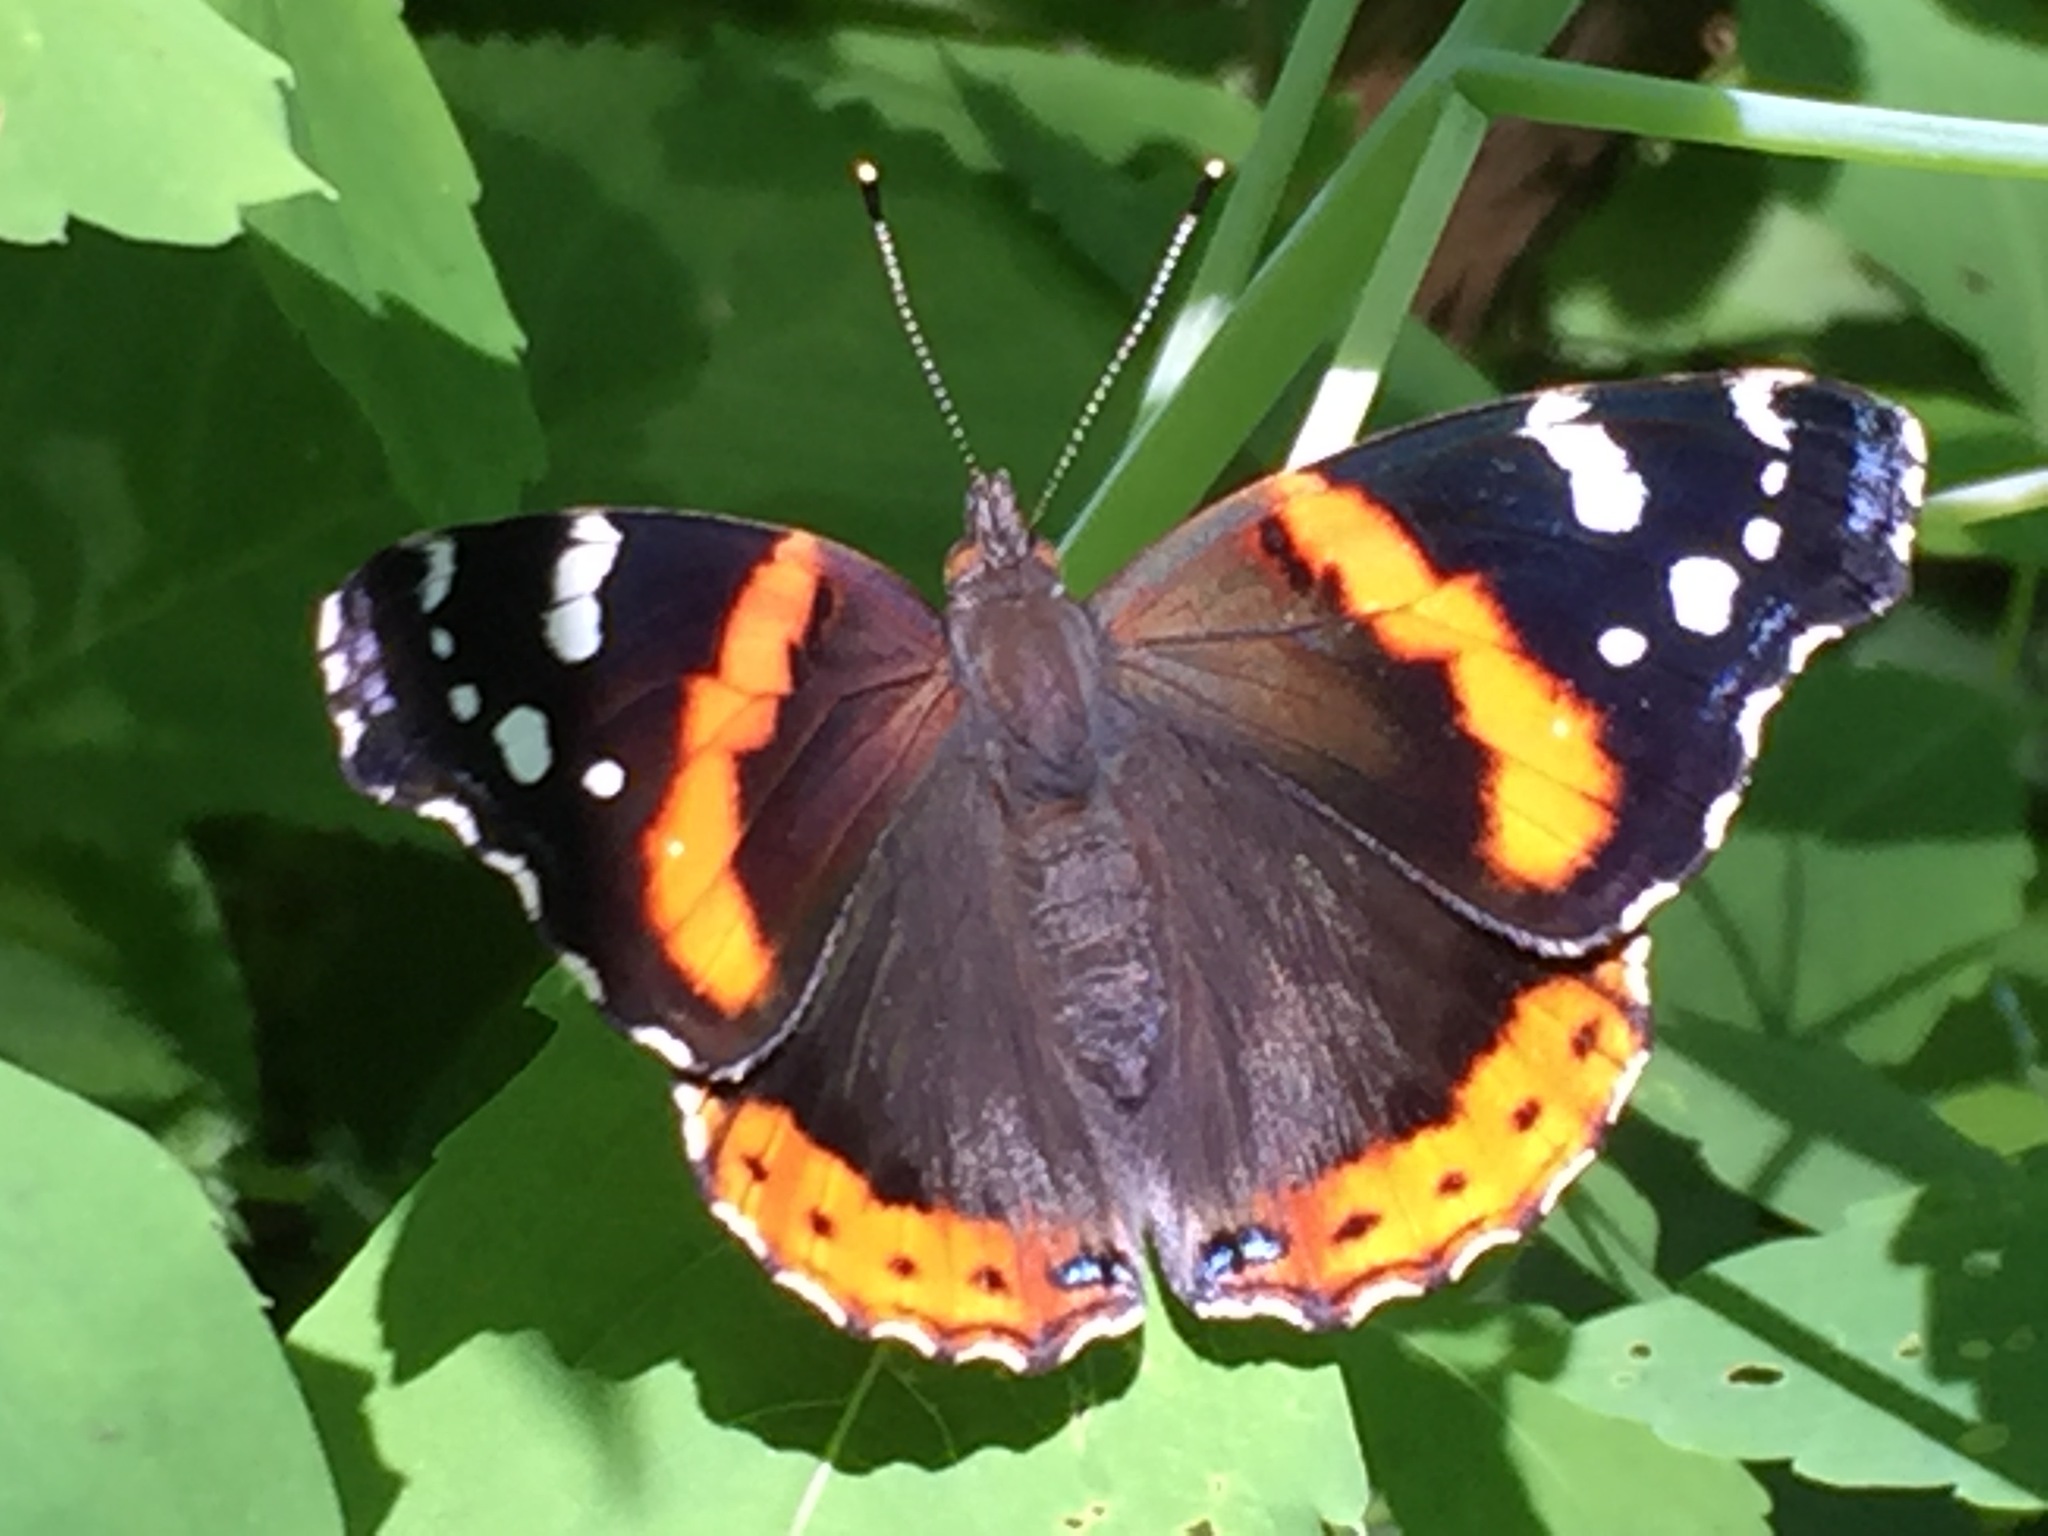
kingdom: Animalia
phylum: Arthropoda
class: Insecta
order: Lepidoptera
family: Nymphalidae
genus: Vanessa
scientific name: Vanessa atalanta
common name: Red admiral
